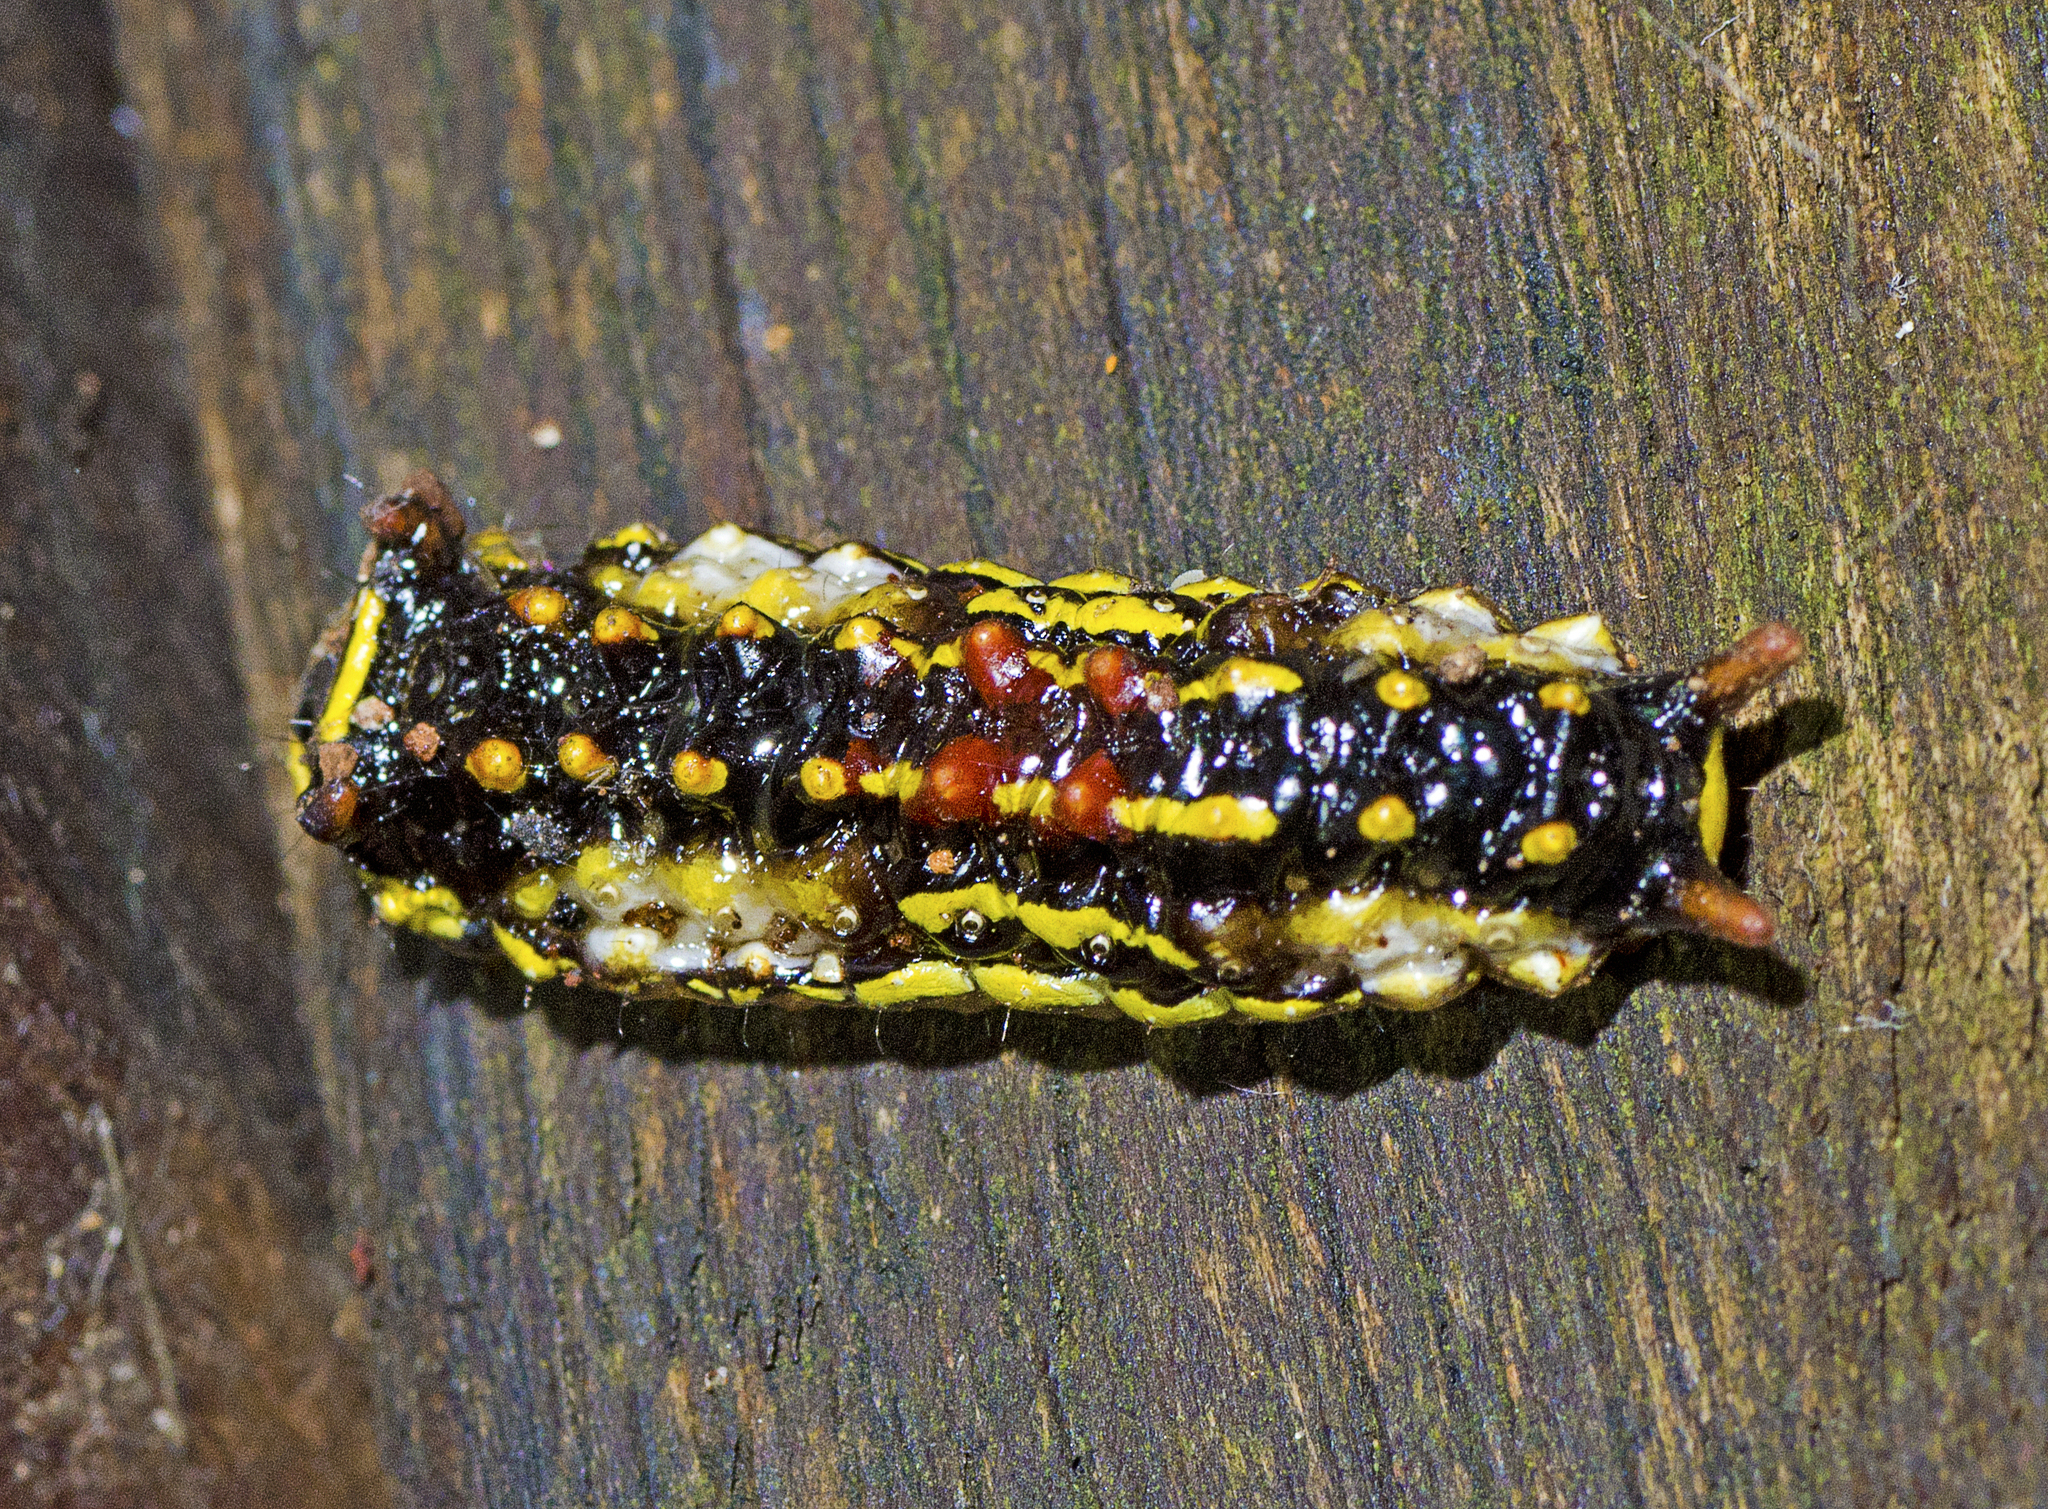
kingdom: Animalia
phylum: Arthropoda
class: Insecta
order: Lepidoptera
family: Lacturidae
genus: Lactura
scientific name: Lactura sapotearum
